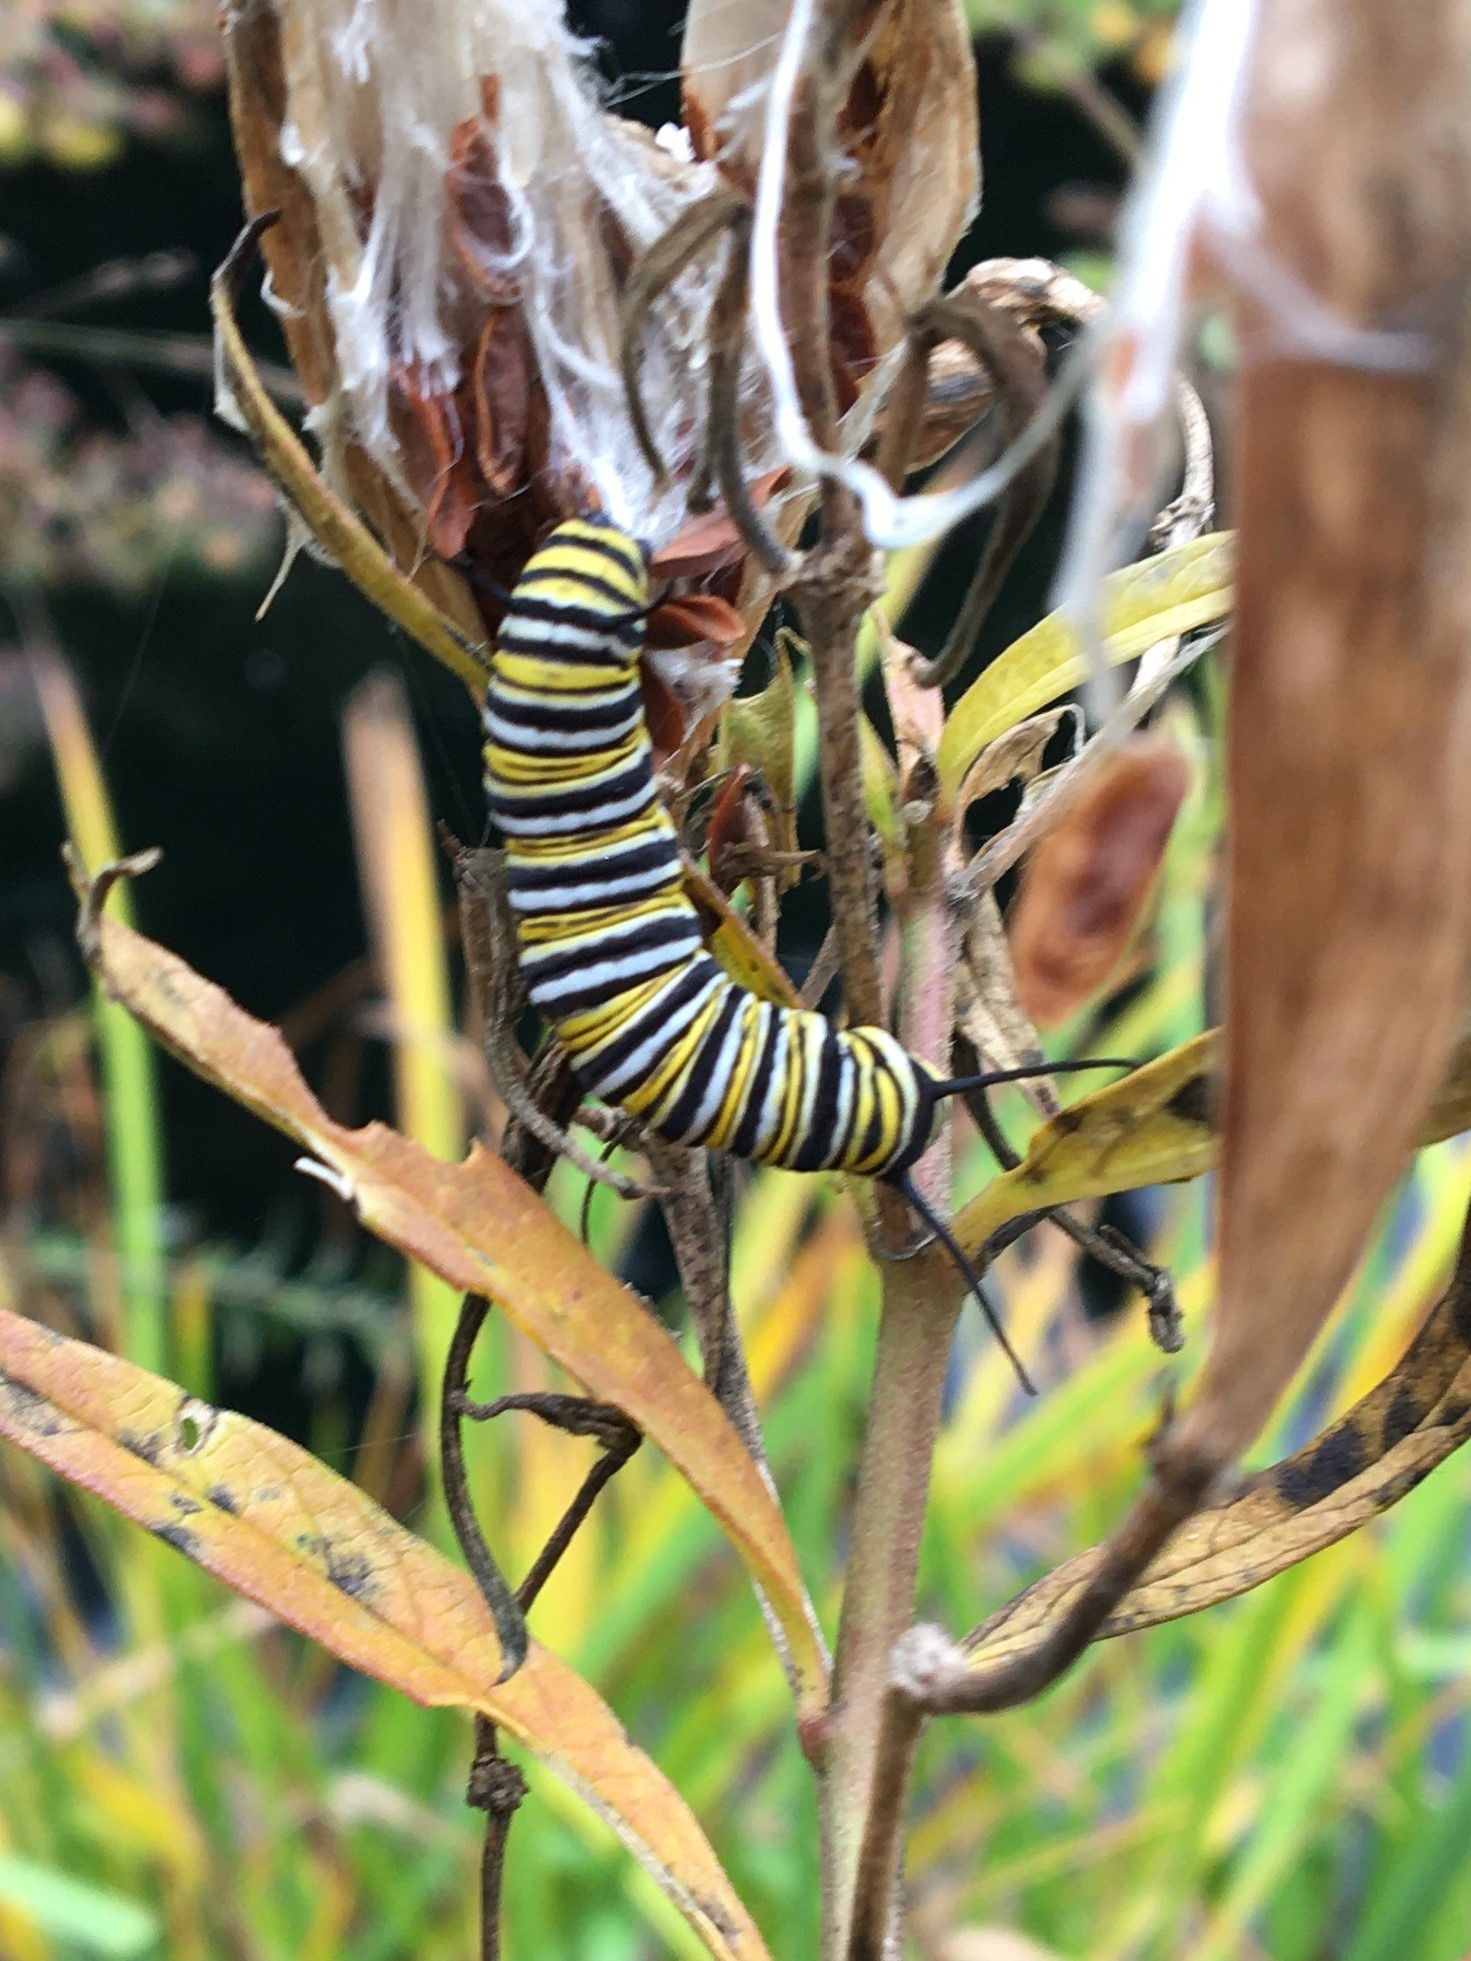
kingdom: Animalia
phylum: Arthropoda
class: Insecta
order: Lepidoptera
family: Nymphalidae
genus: Danaus
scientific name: Danaus plexippus
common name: Monarch
